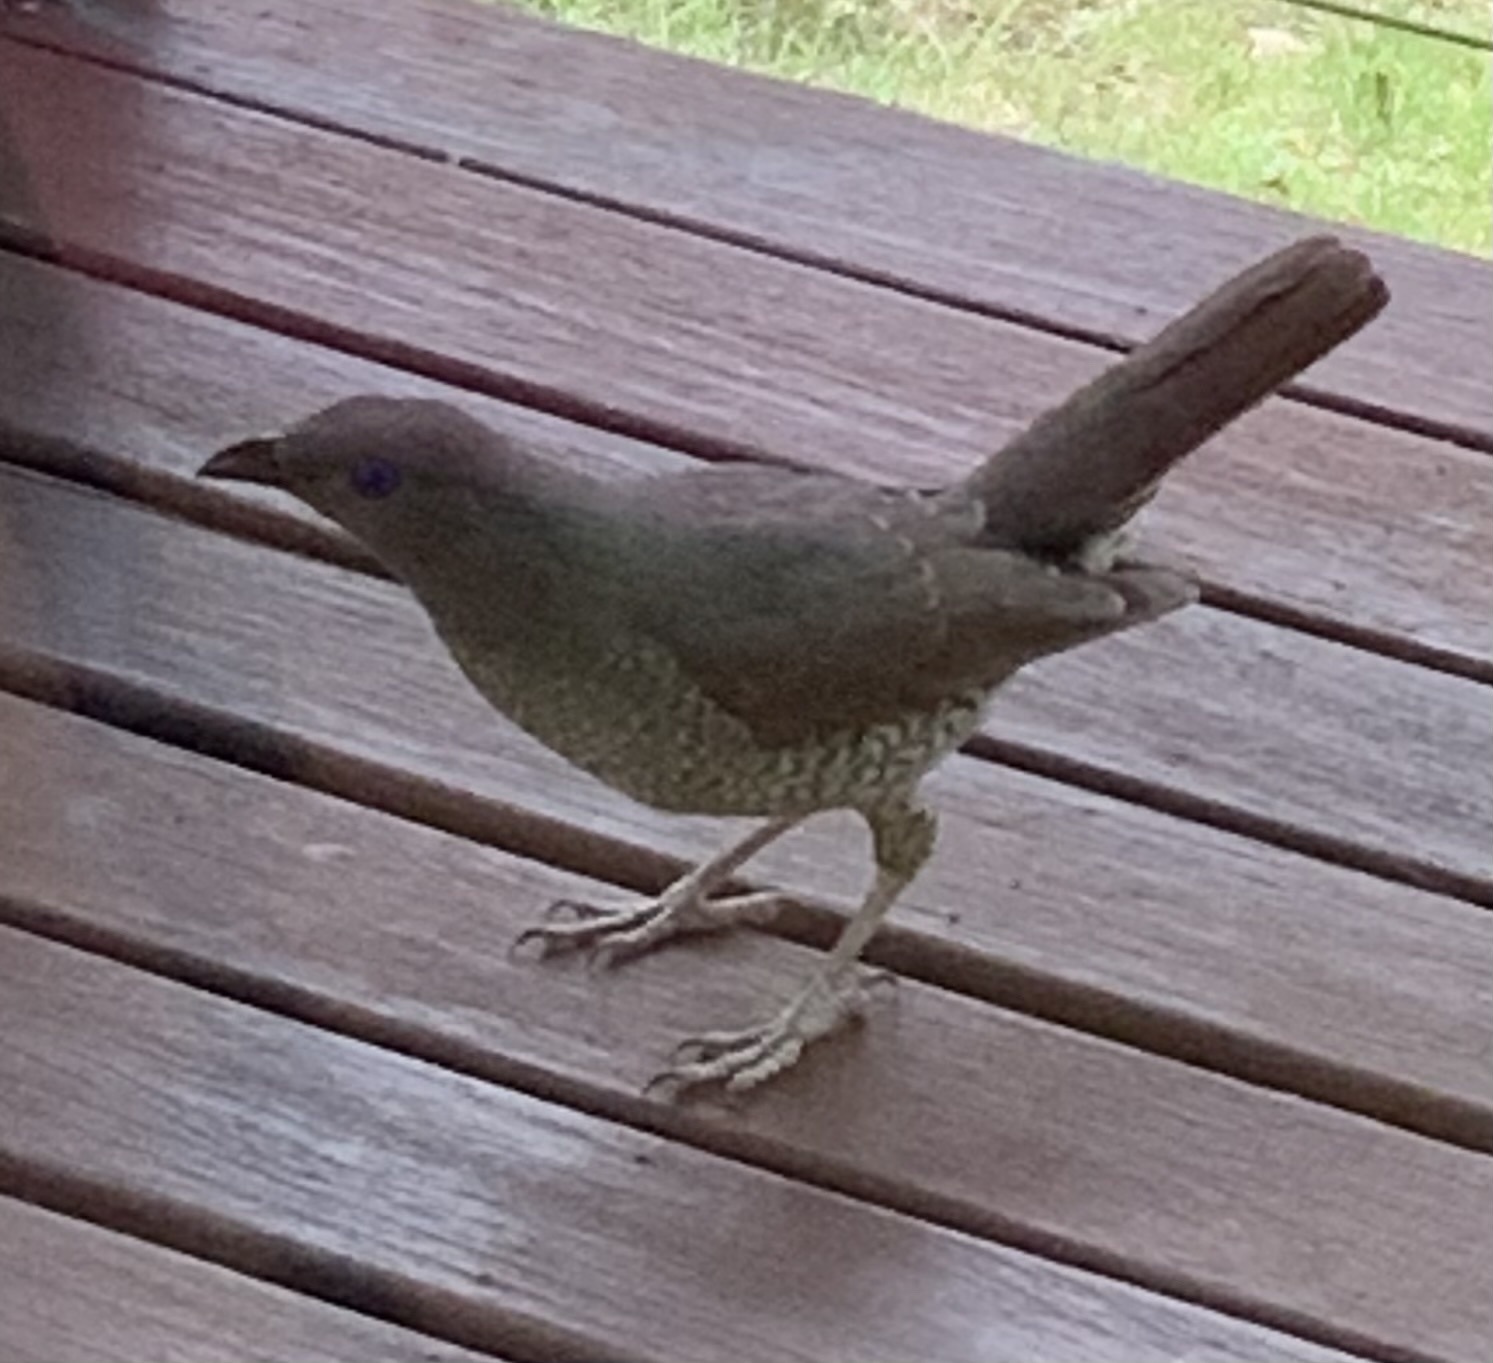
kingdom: Animalia
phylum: Chordata
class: Aves
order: Passeriformes
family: Ptilonorhynchidae
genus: Ptilonorhynchus
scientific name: Ptilonorhynchus violaceus
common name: Satin bowerbird
